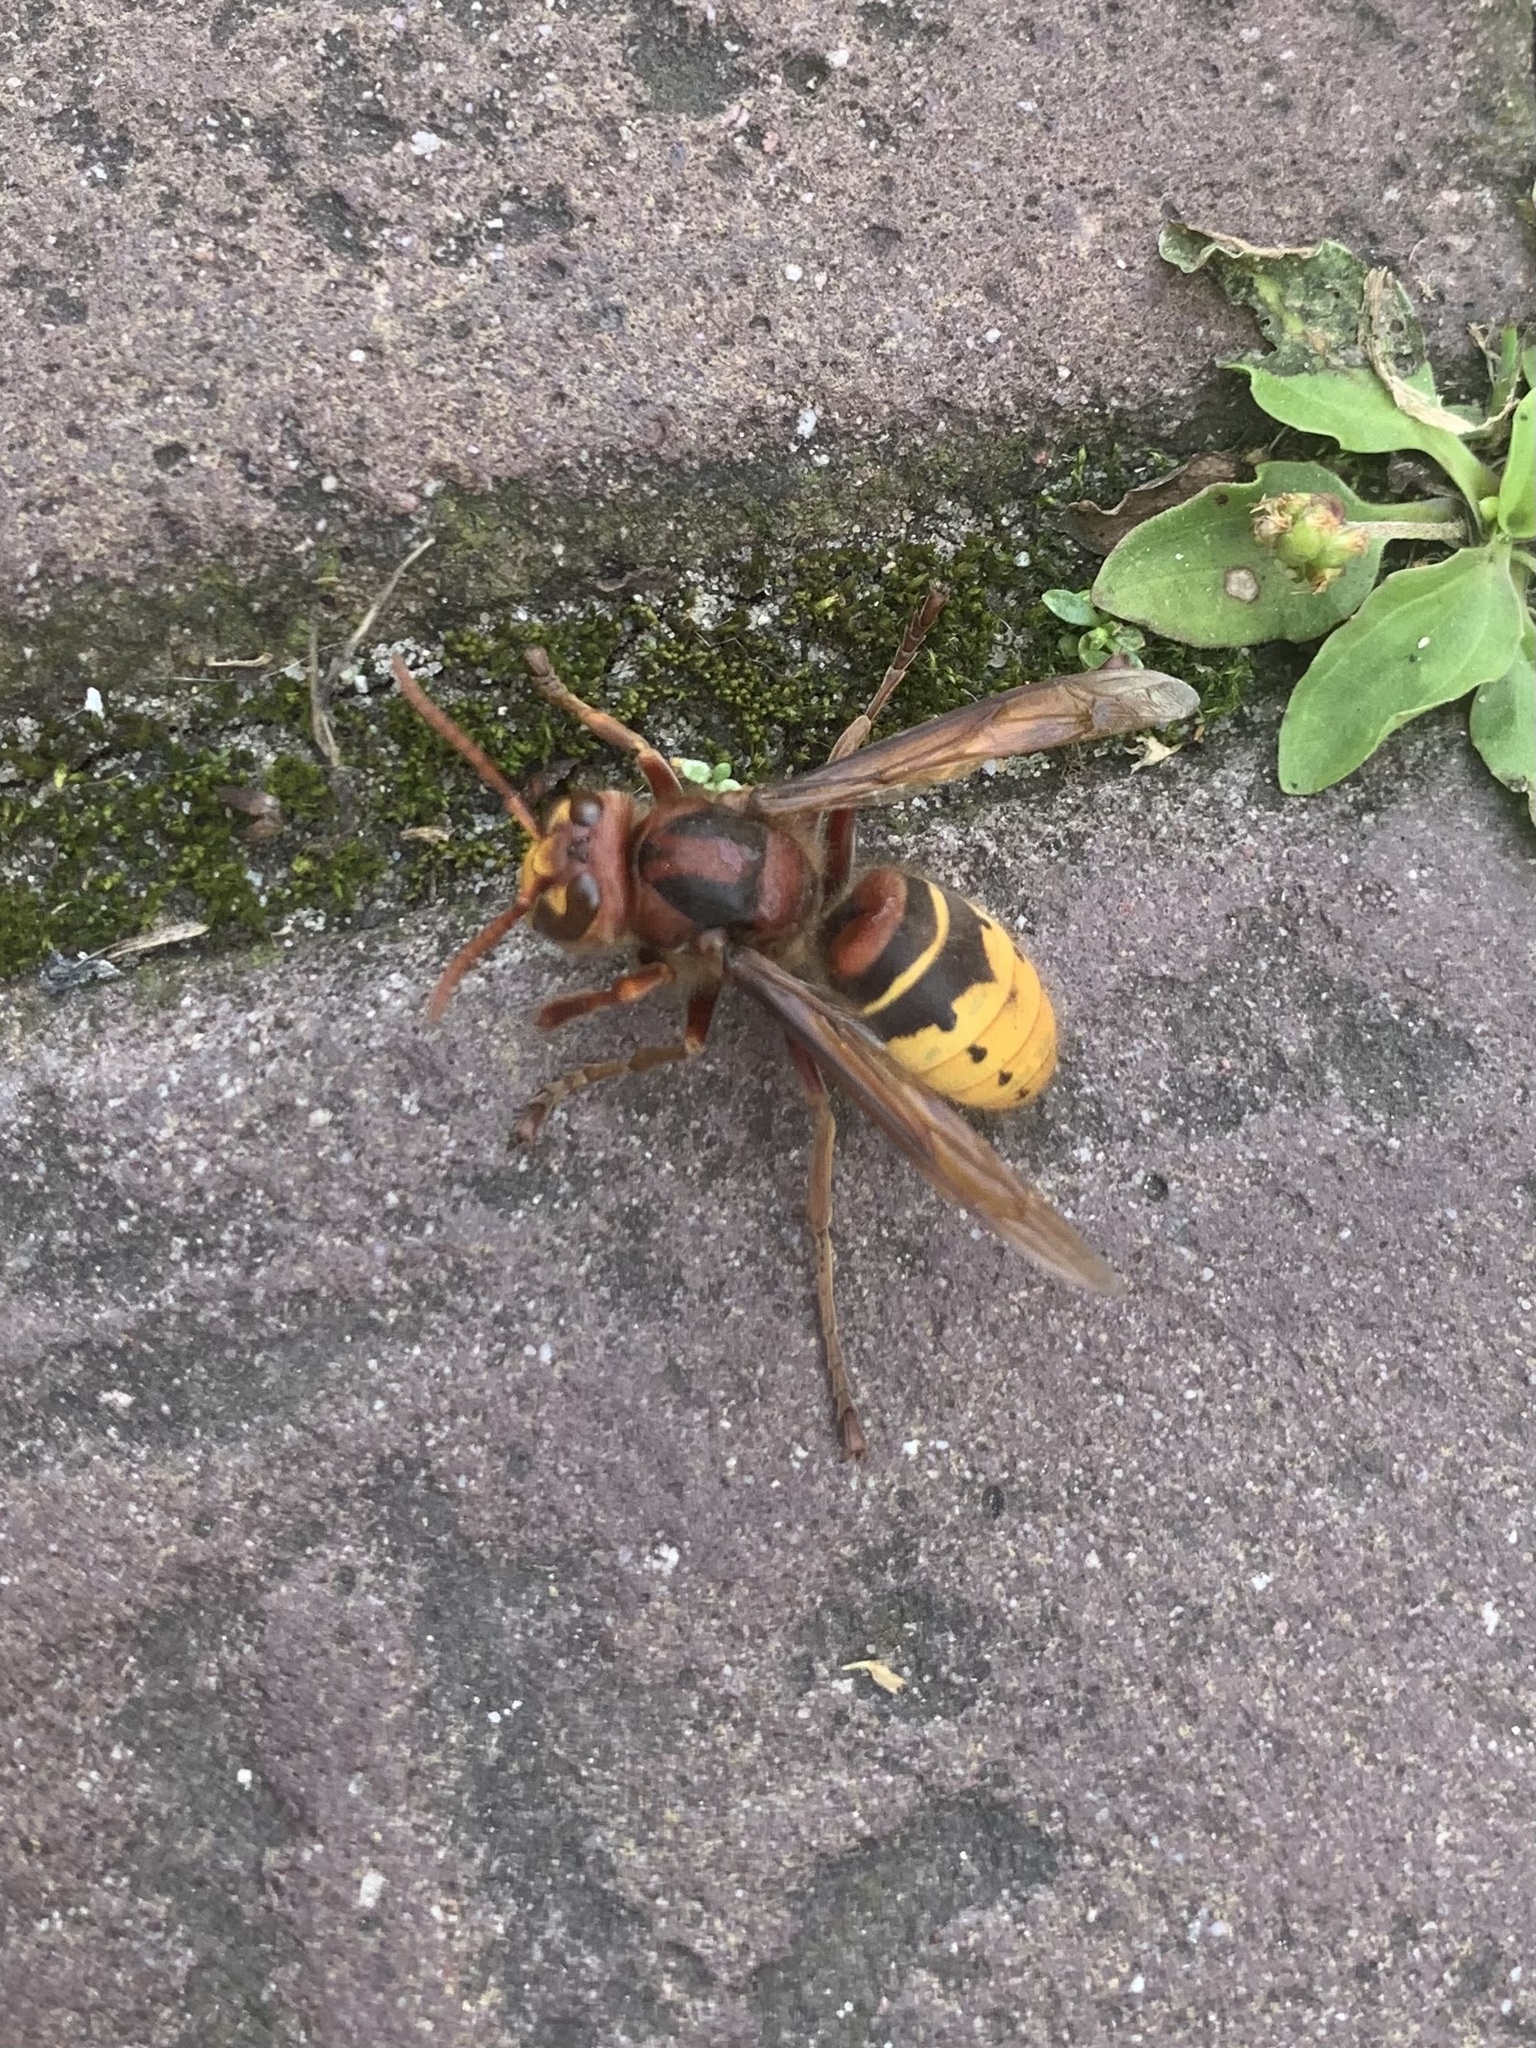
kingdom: Animalia
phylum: Arthropoda
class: Insecta
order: Hymenoptera
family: Vespidae
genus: Vespa
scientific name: Vespa crabro
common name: Hornet
